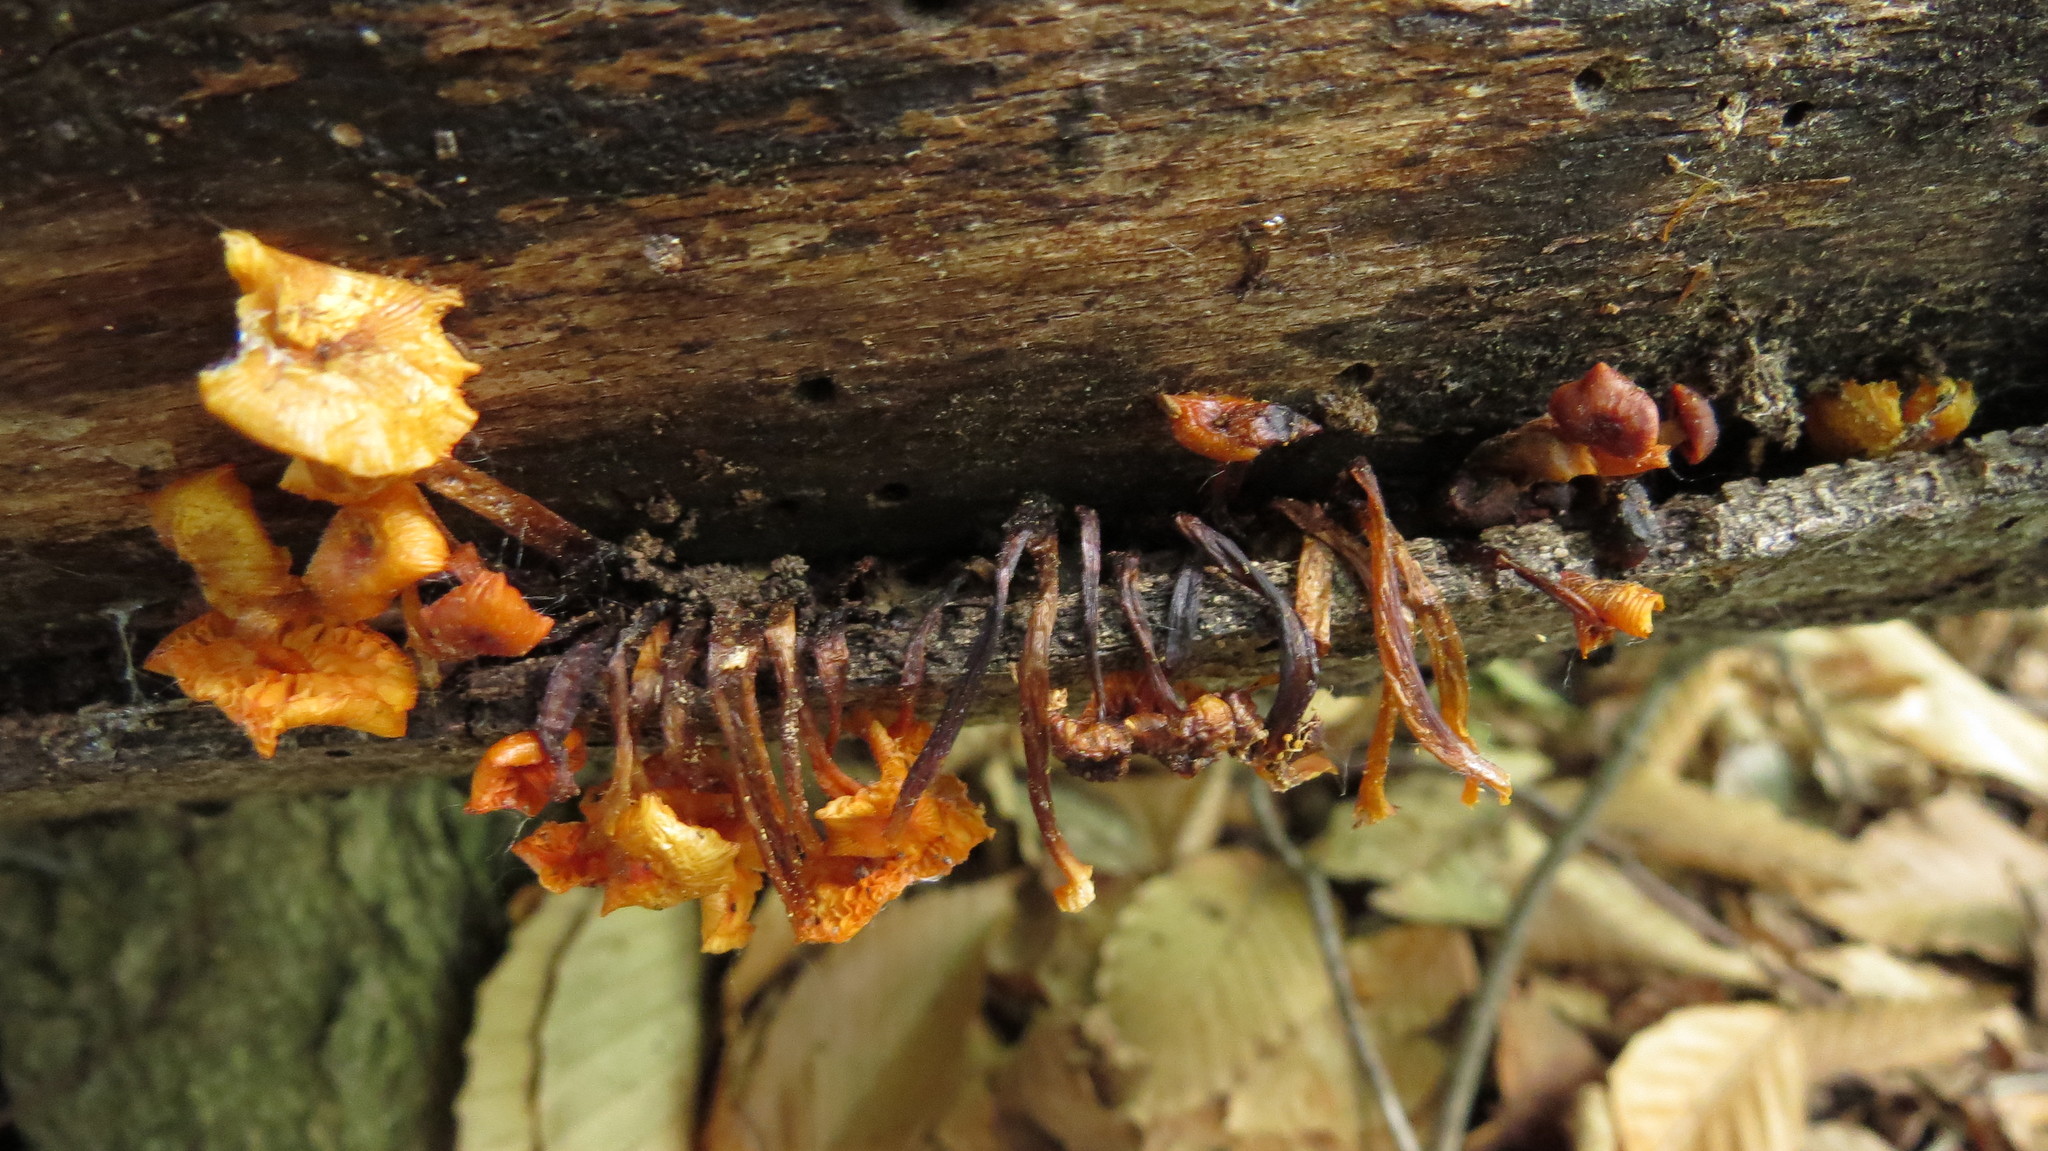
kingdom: Fungi
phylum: Basidiomycota
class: Agaricomycetes
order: Agaricales
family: Mycenaceae
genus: Mycena
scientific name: Mycena leaiana
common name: Orange mycena
